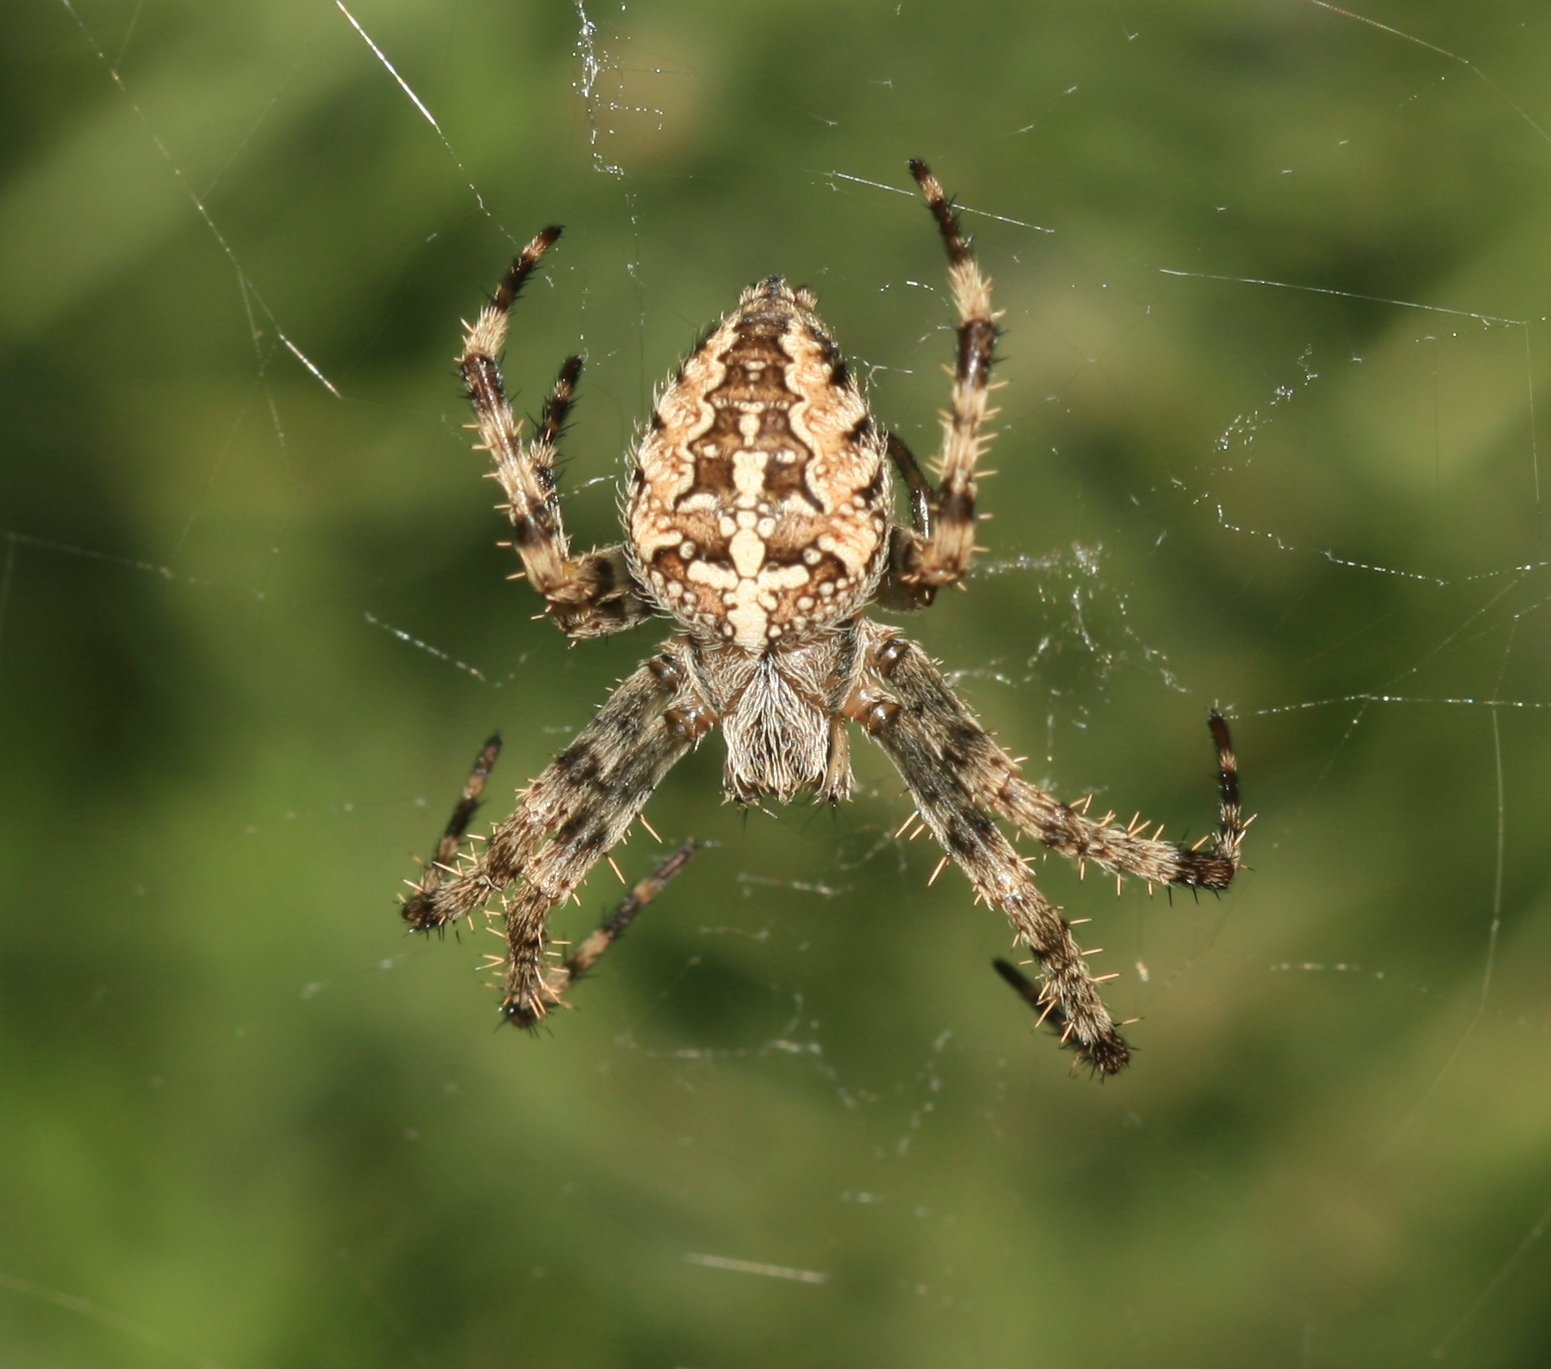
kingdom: Animalia
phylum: Arthropoda
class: Arachnida
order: Araneae
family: Araneidae
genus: Araneus
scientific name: Araneus diadematus
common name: Cross orbweaver
